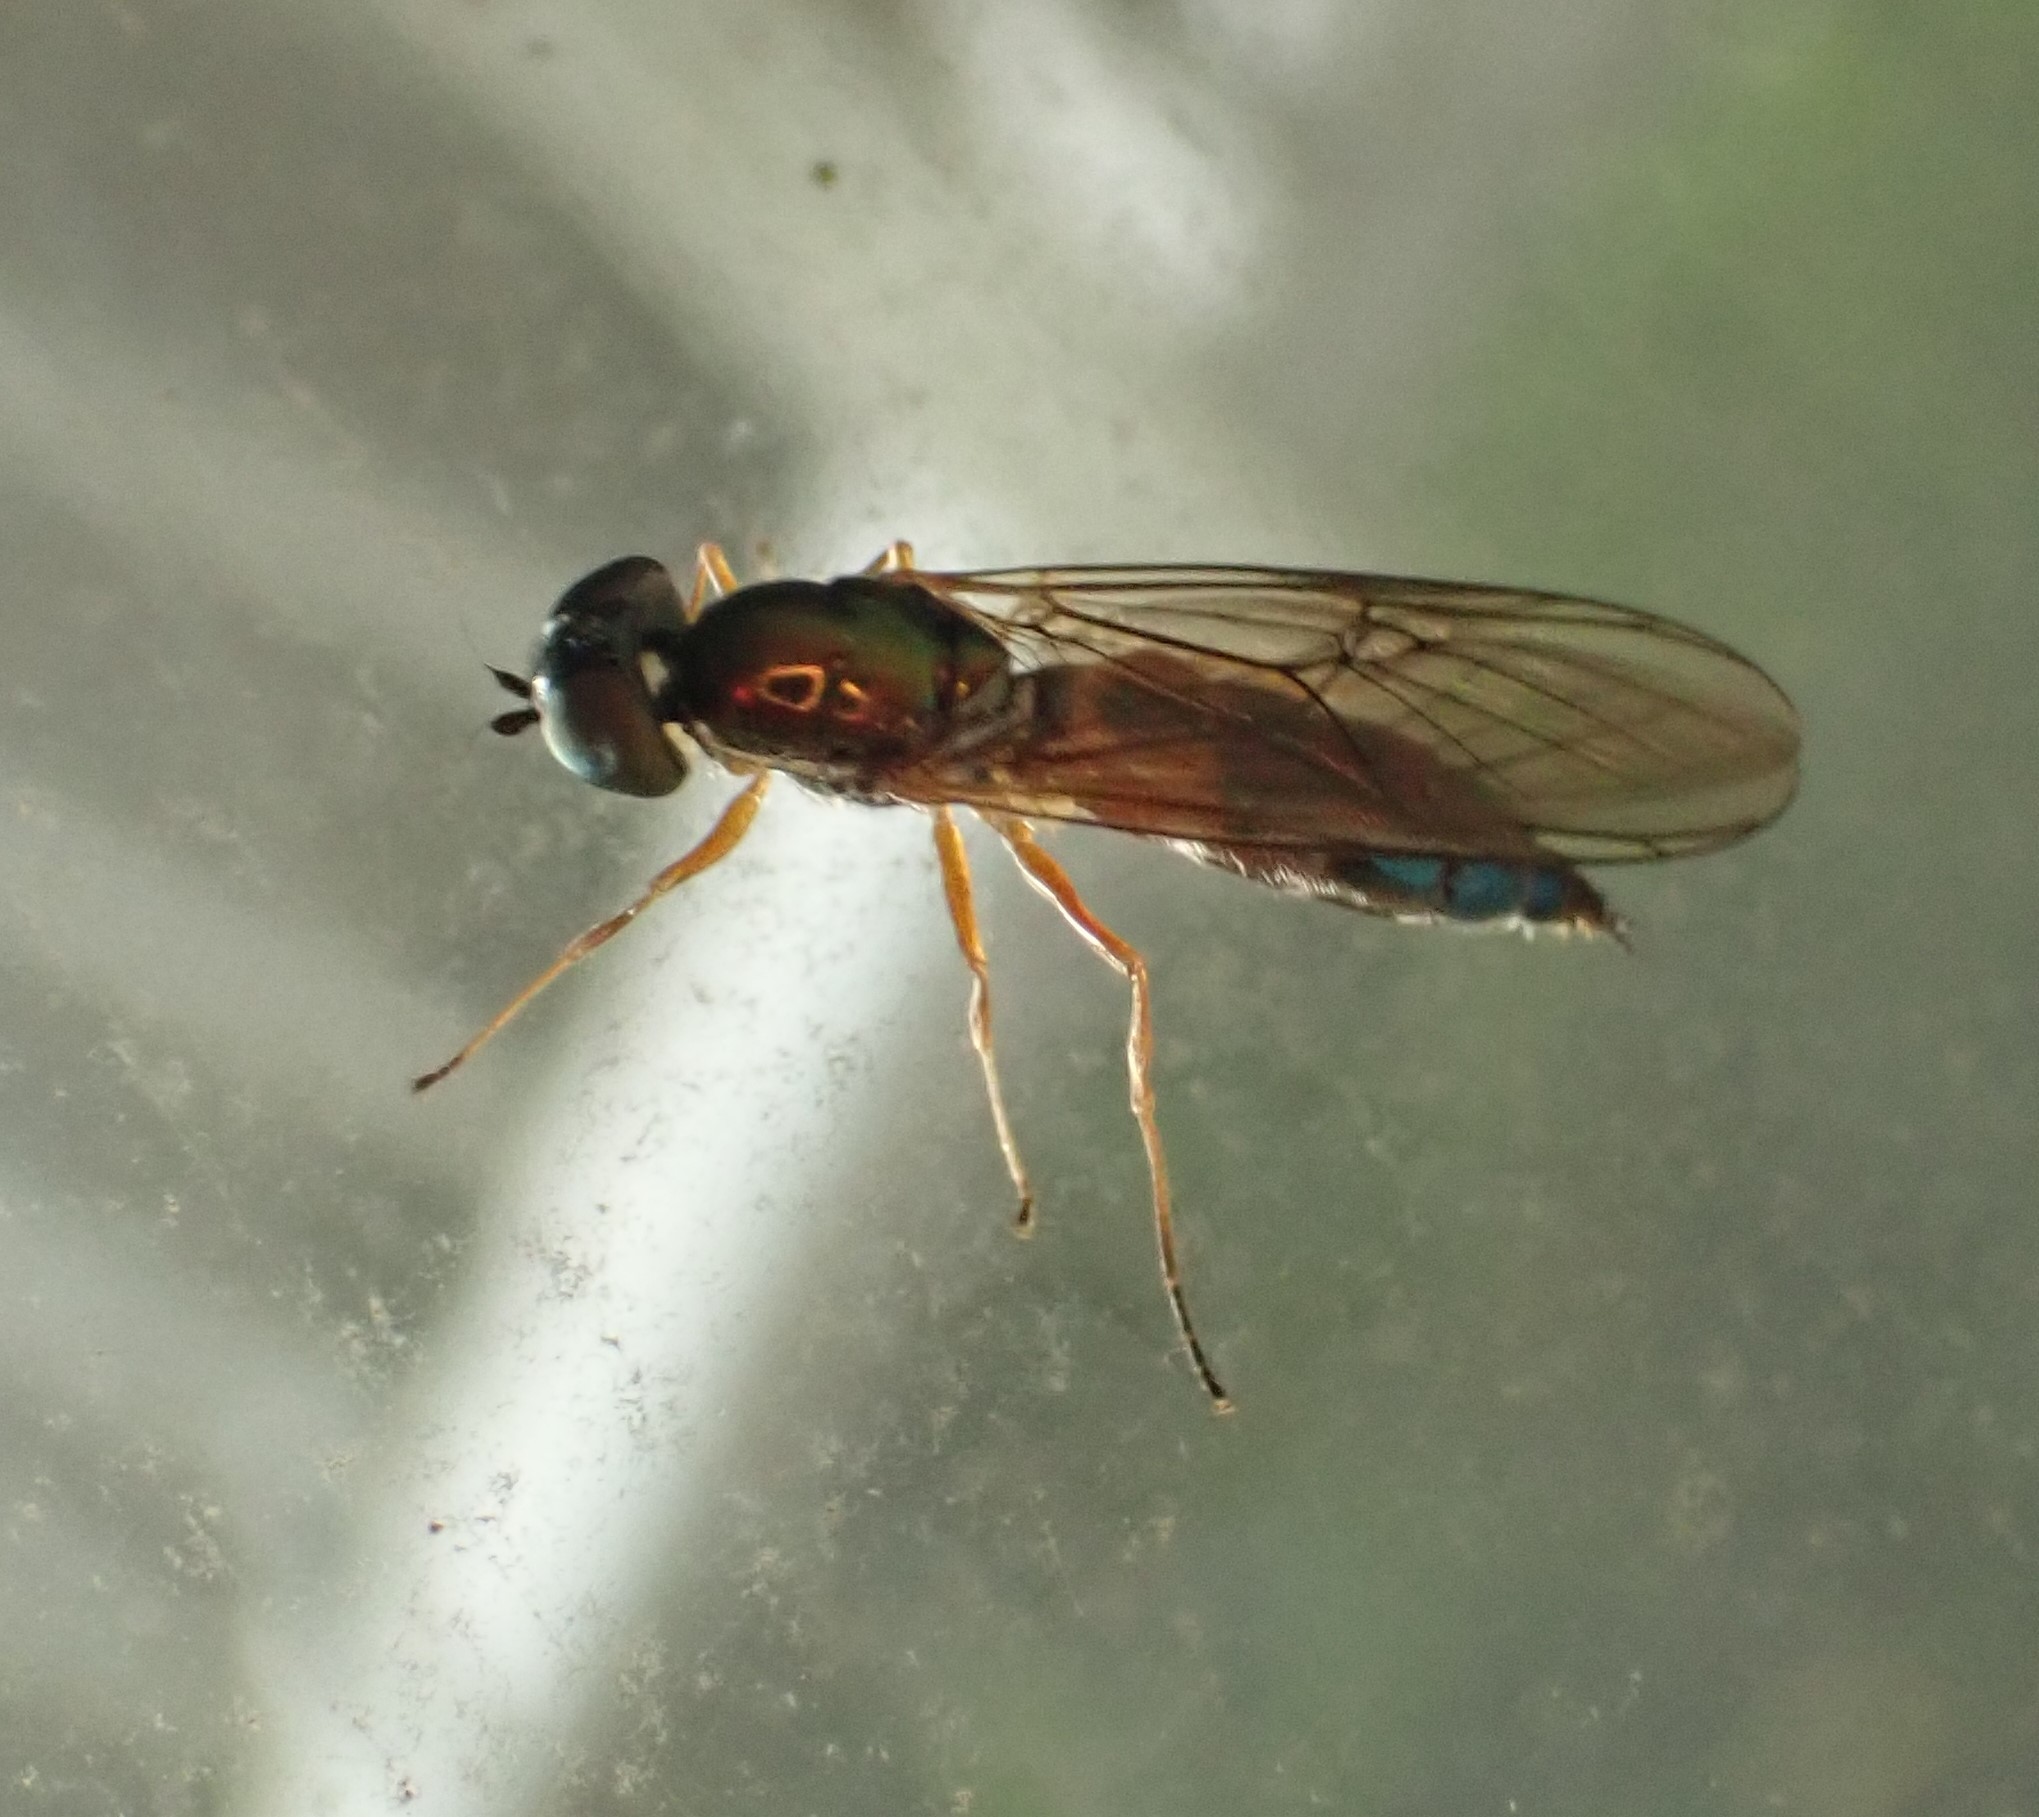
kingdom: Animalia
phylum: Arthropoda
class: Insecta
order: Diptera
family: Stratiomyidae
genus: Sargus
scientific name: Sargus bipunctatus
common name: Twin-spot centurion
